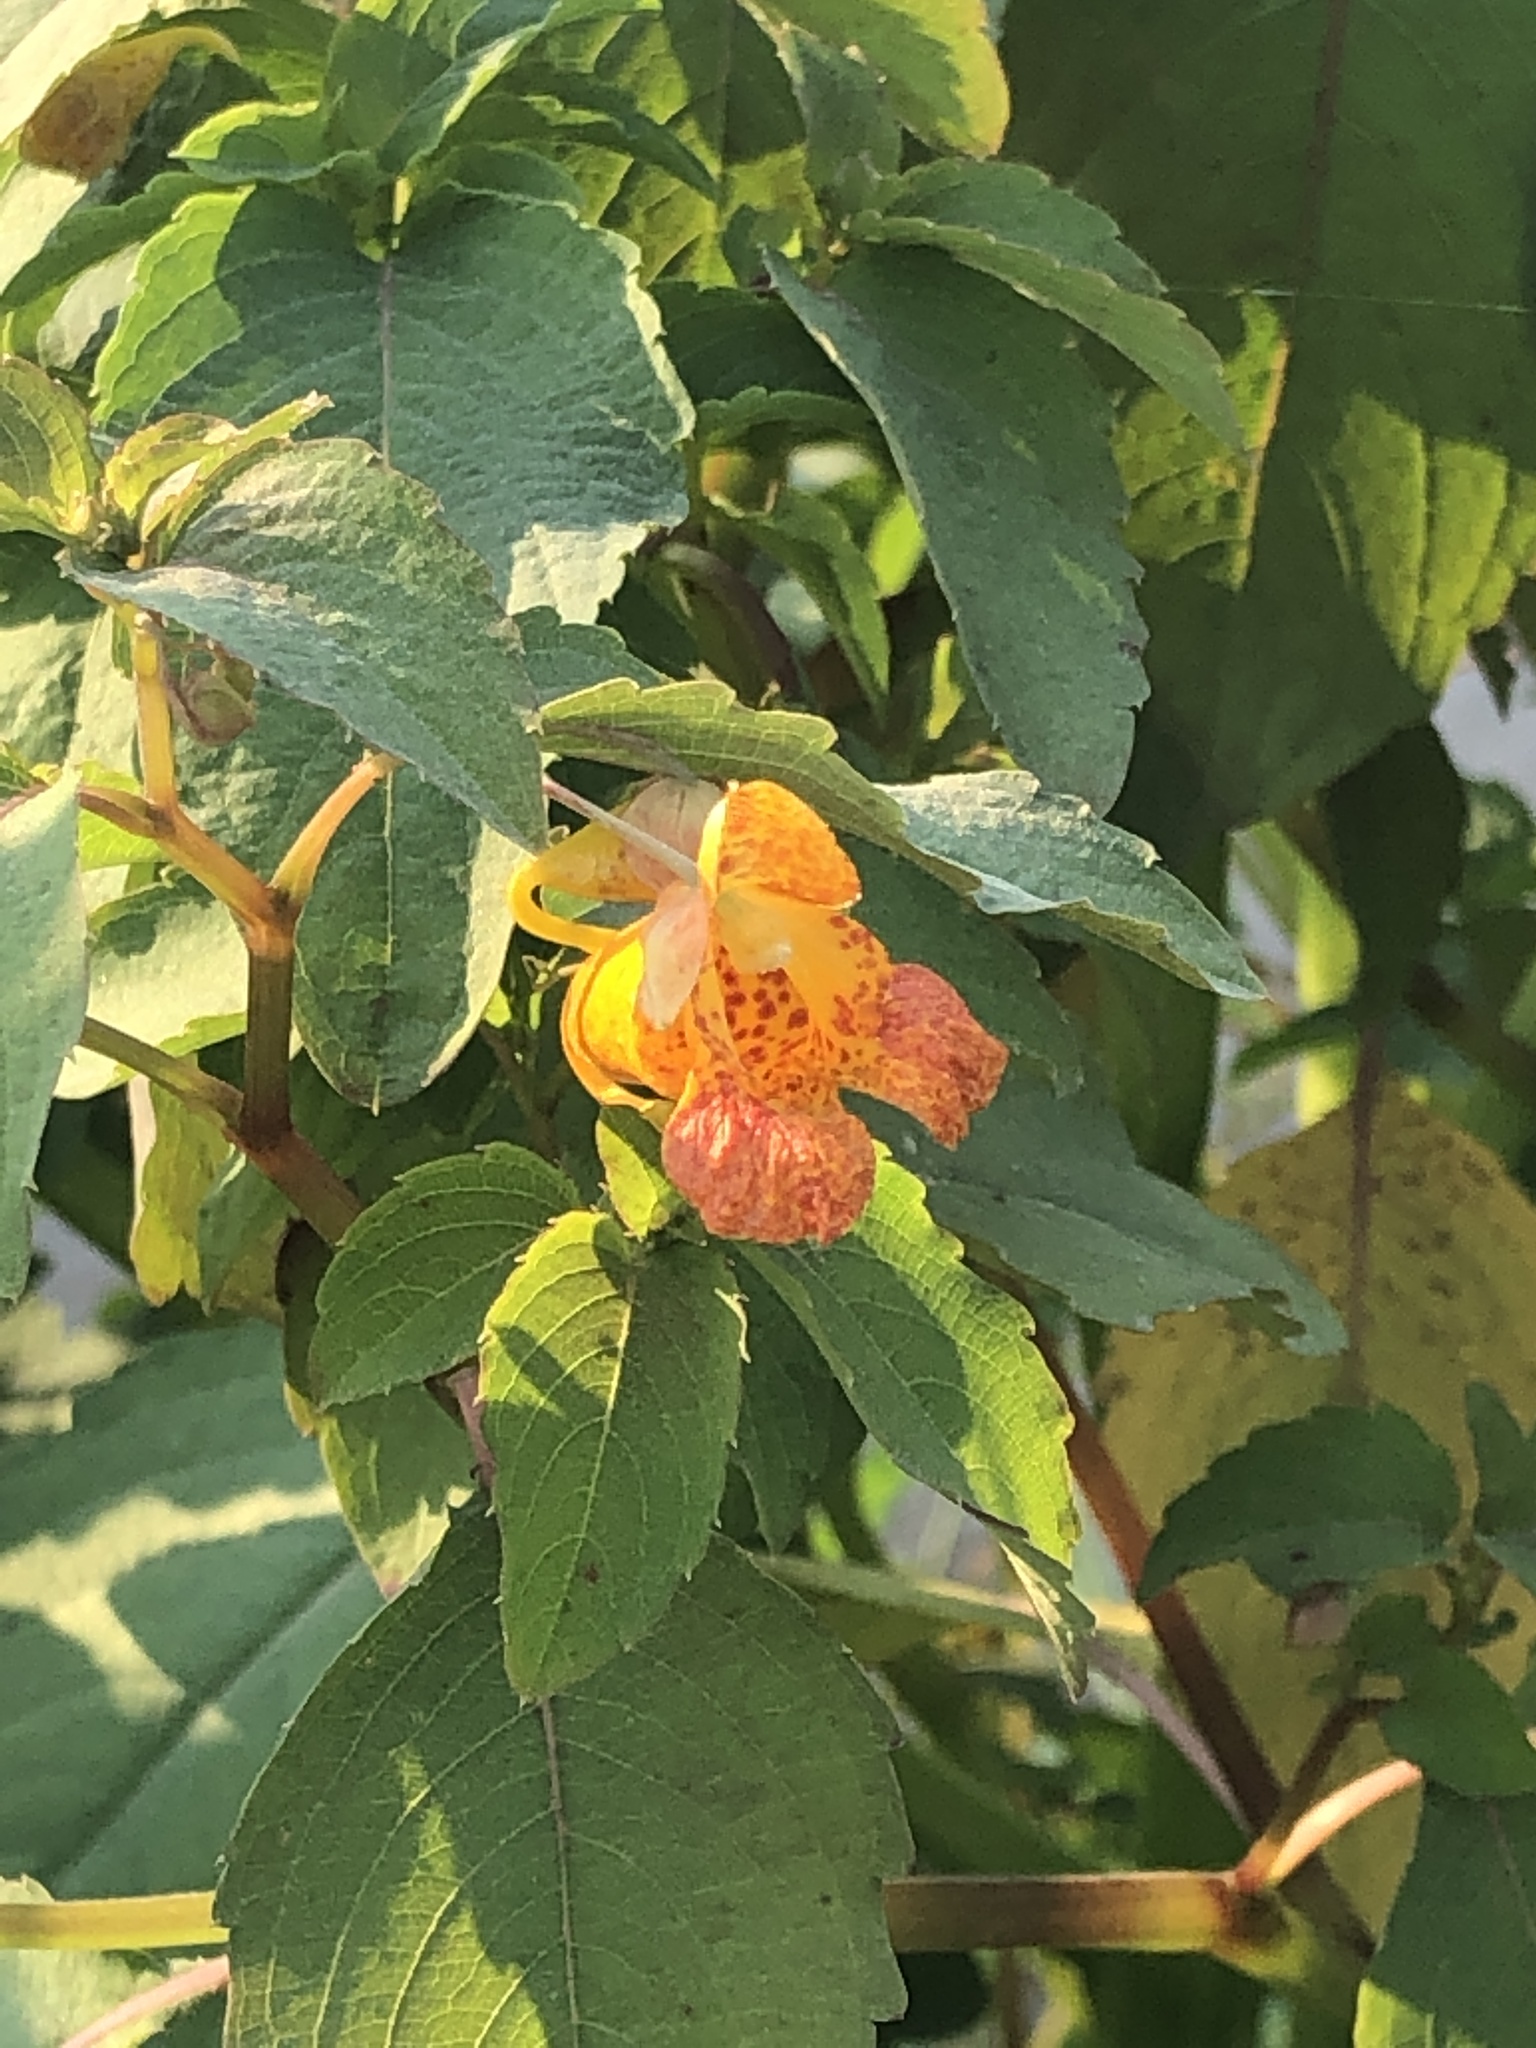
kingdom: Plantae
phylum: Tracheophyta
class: Magnoliopsida
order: Ericales
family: Balsaminaceae
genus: Impatiens
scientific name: Impatiens capensis
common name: Orange balsam
